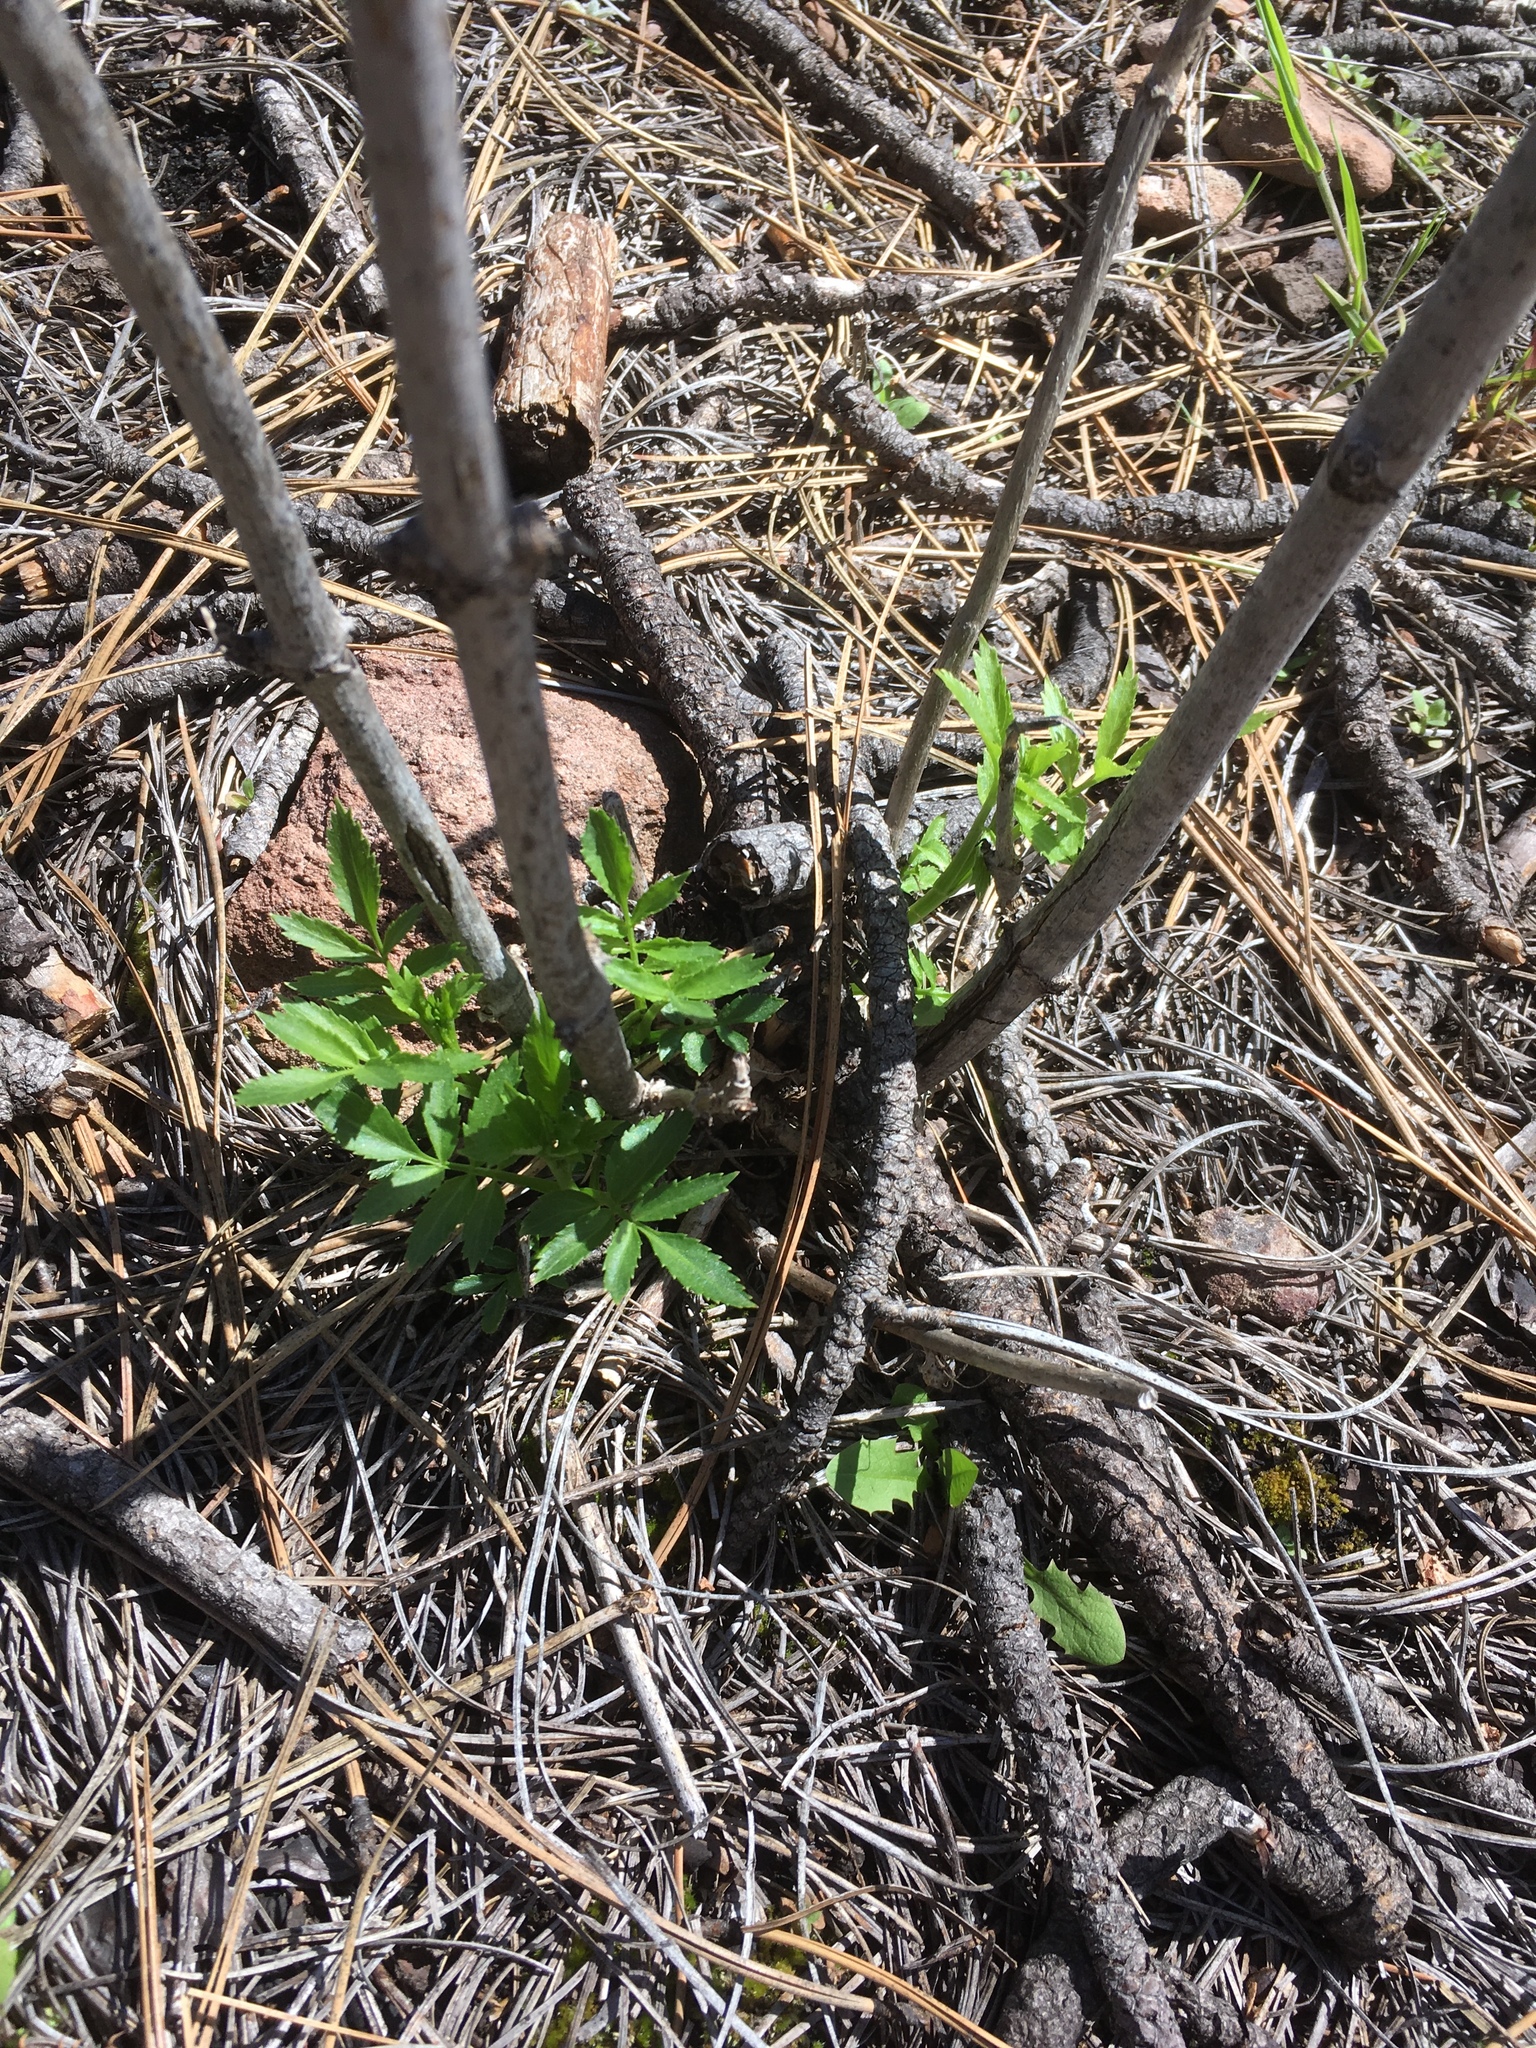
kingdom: Plantae
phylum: Tracheophyta
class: Magnoliopsida
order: Dipsacales
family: Viburnaceae
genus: Sambucus
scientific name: Sambucus cerulea
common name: Blue elder
